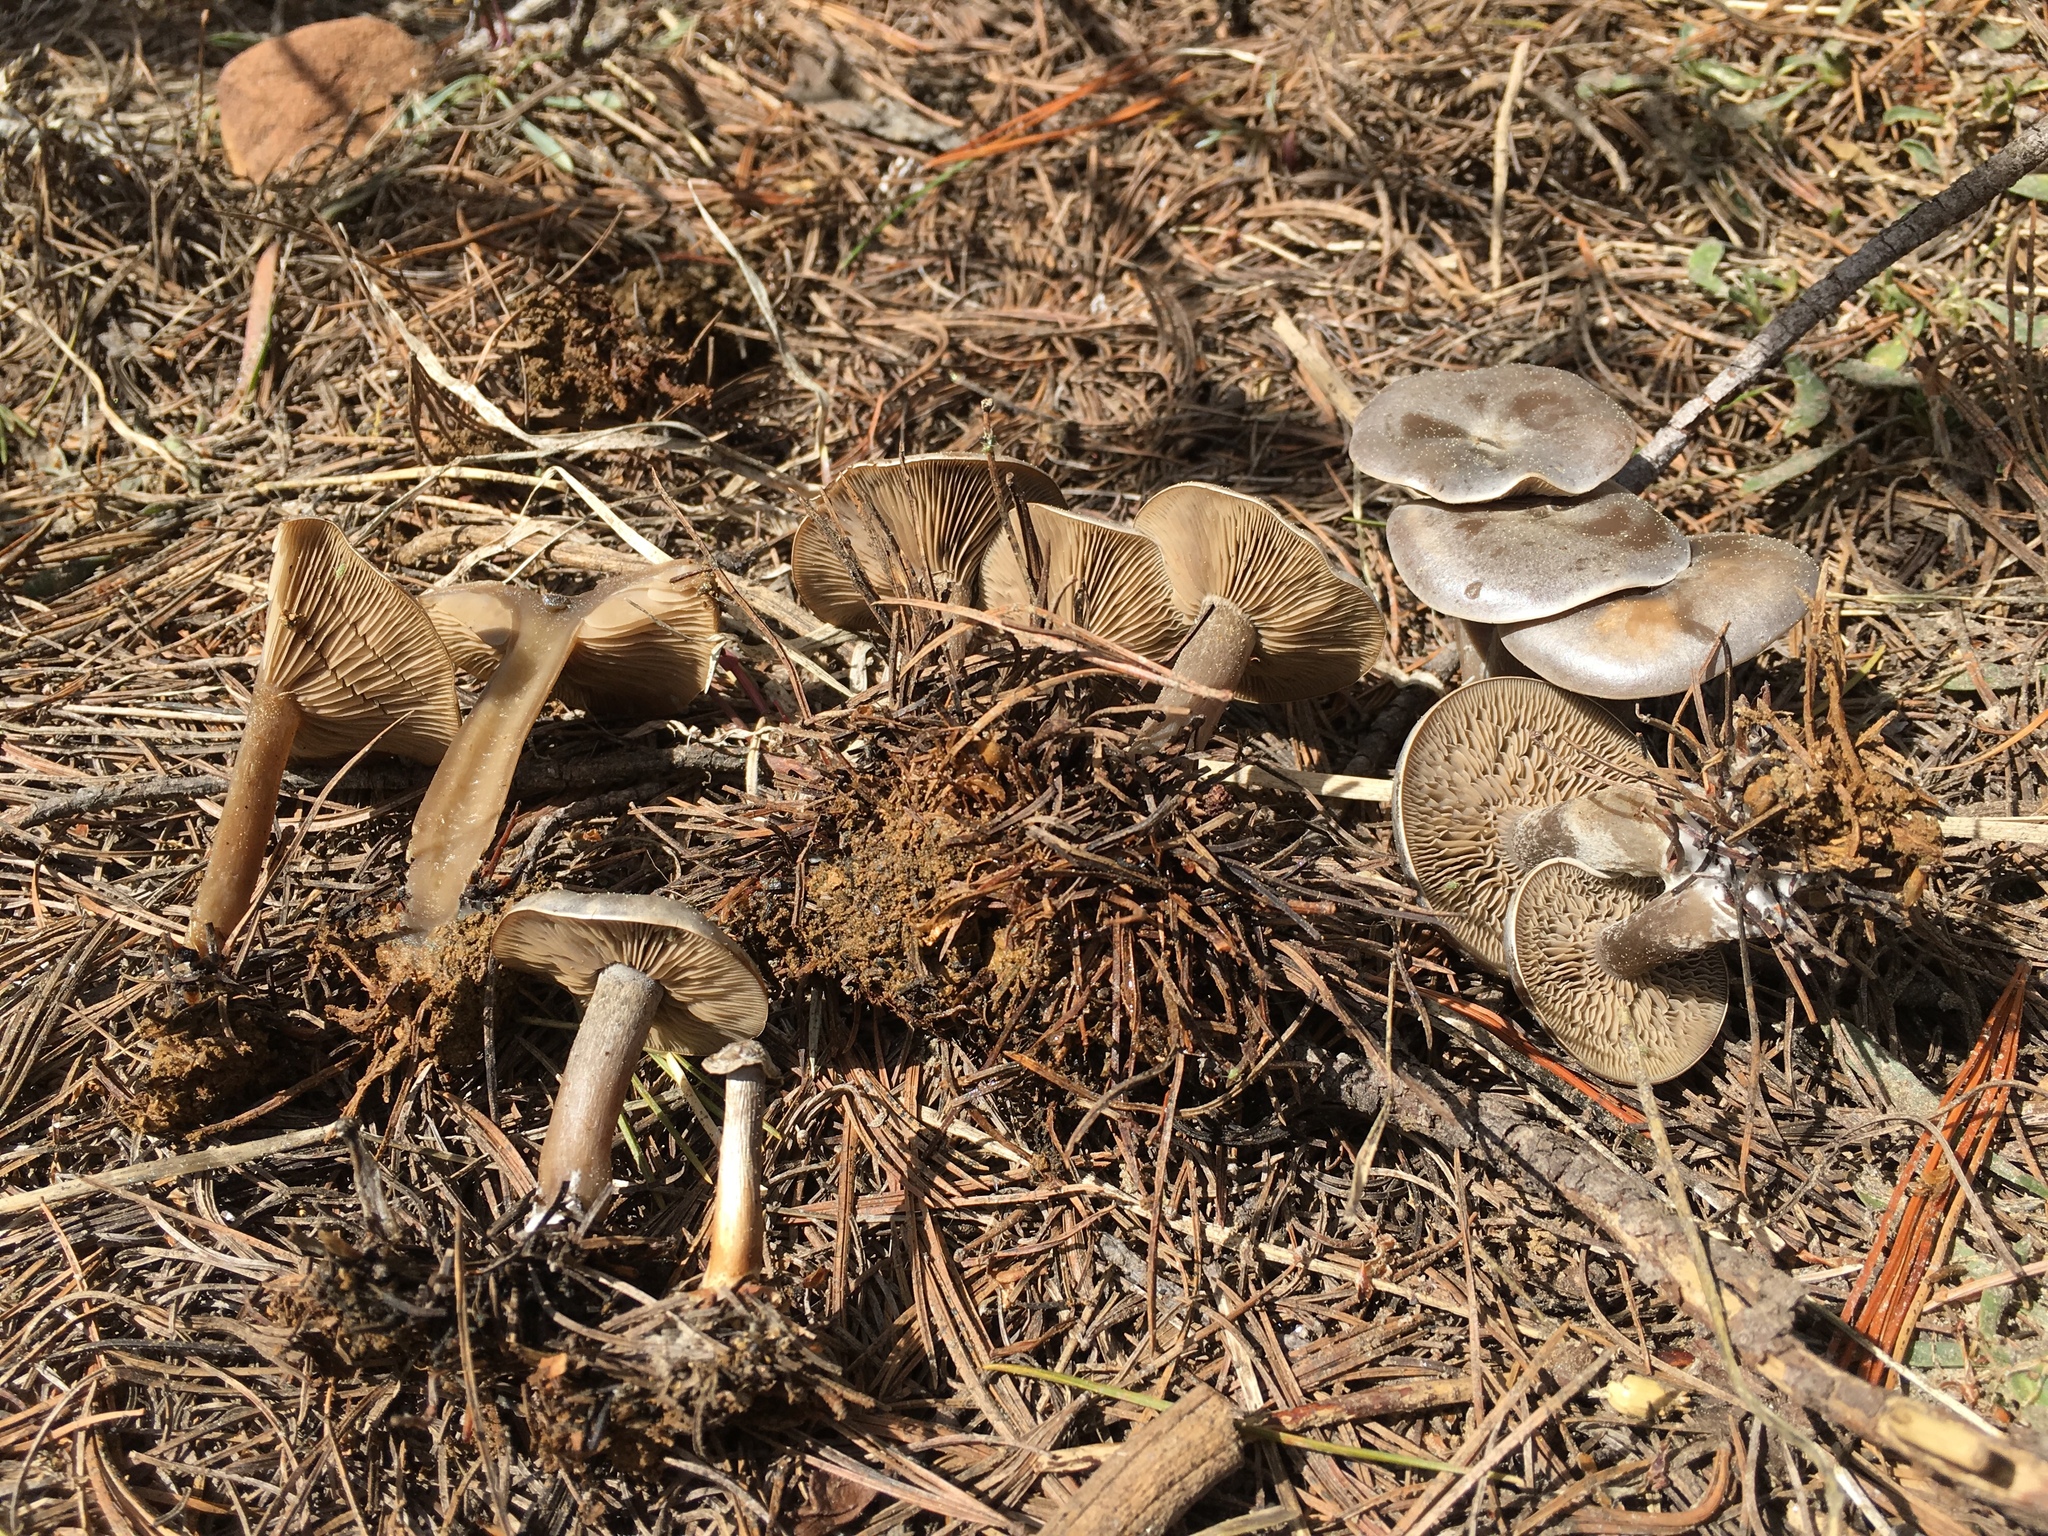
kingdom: Fungi
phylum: Basidiomycota
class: Agaricomycetes
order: Agaricales
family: Tricholomataceae
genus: Clitocybe
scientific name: Clitocybe glacialis
